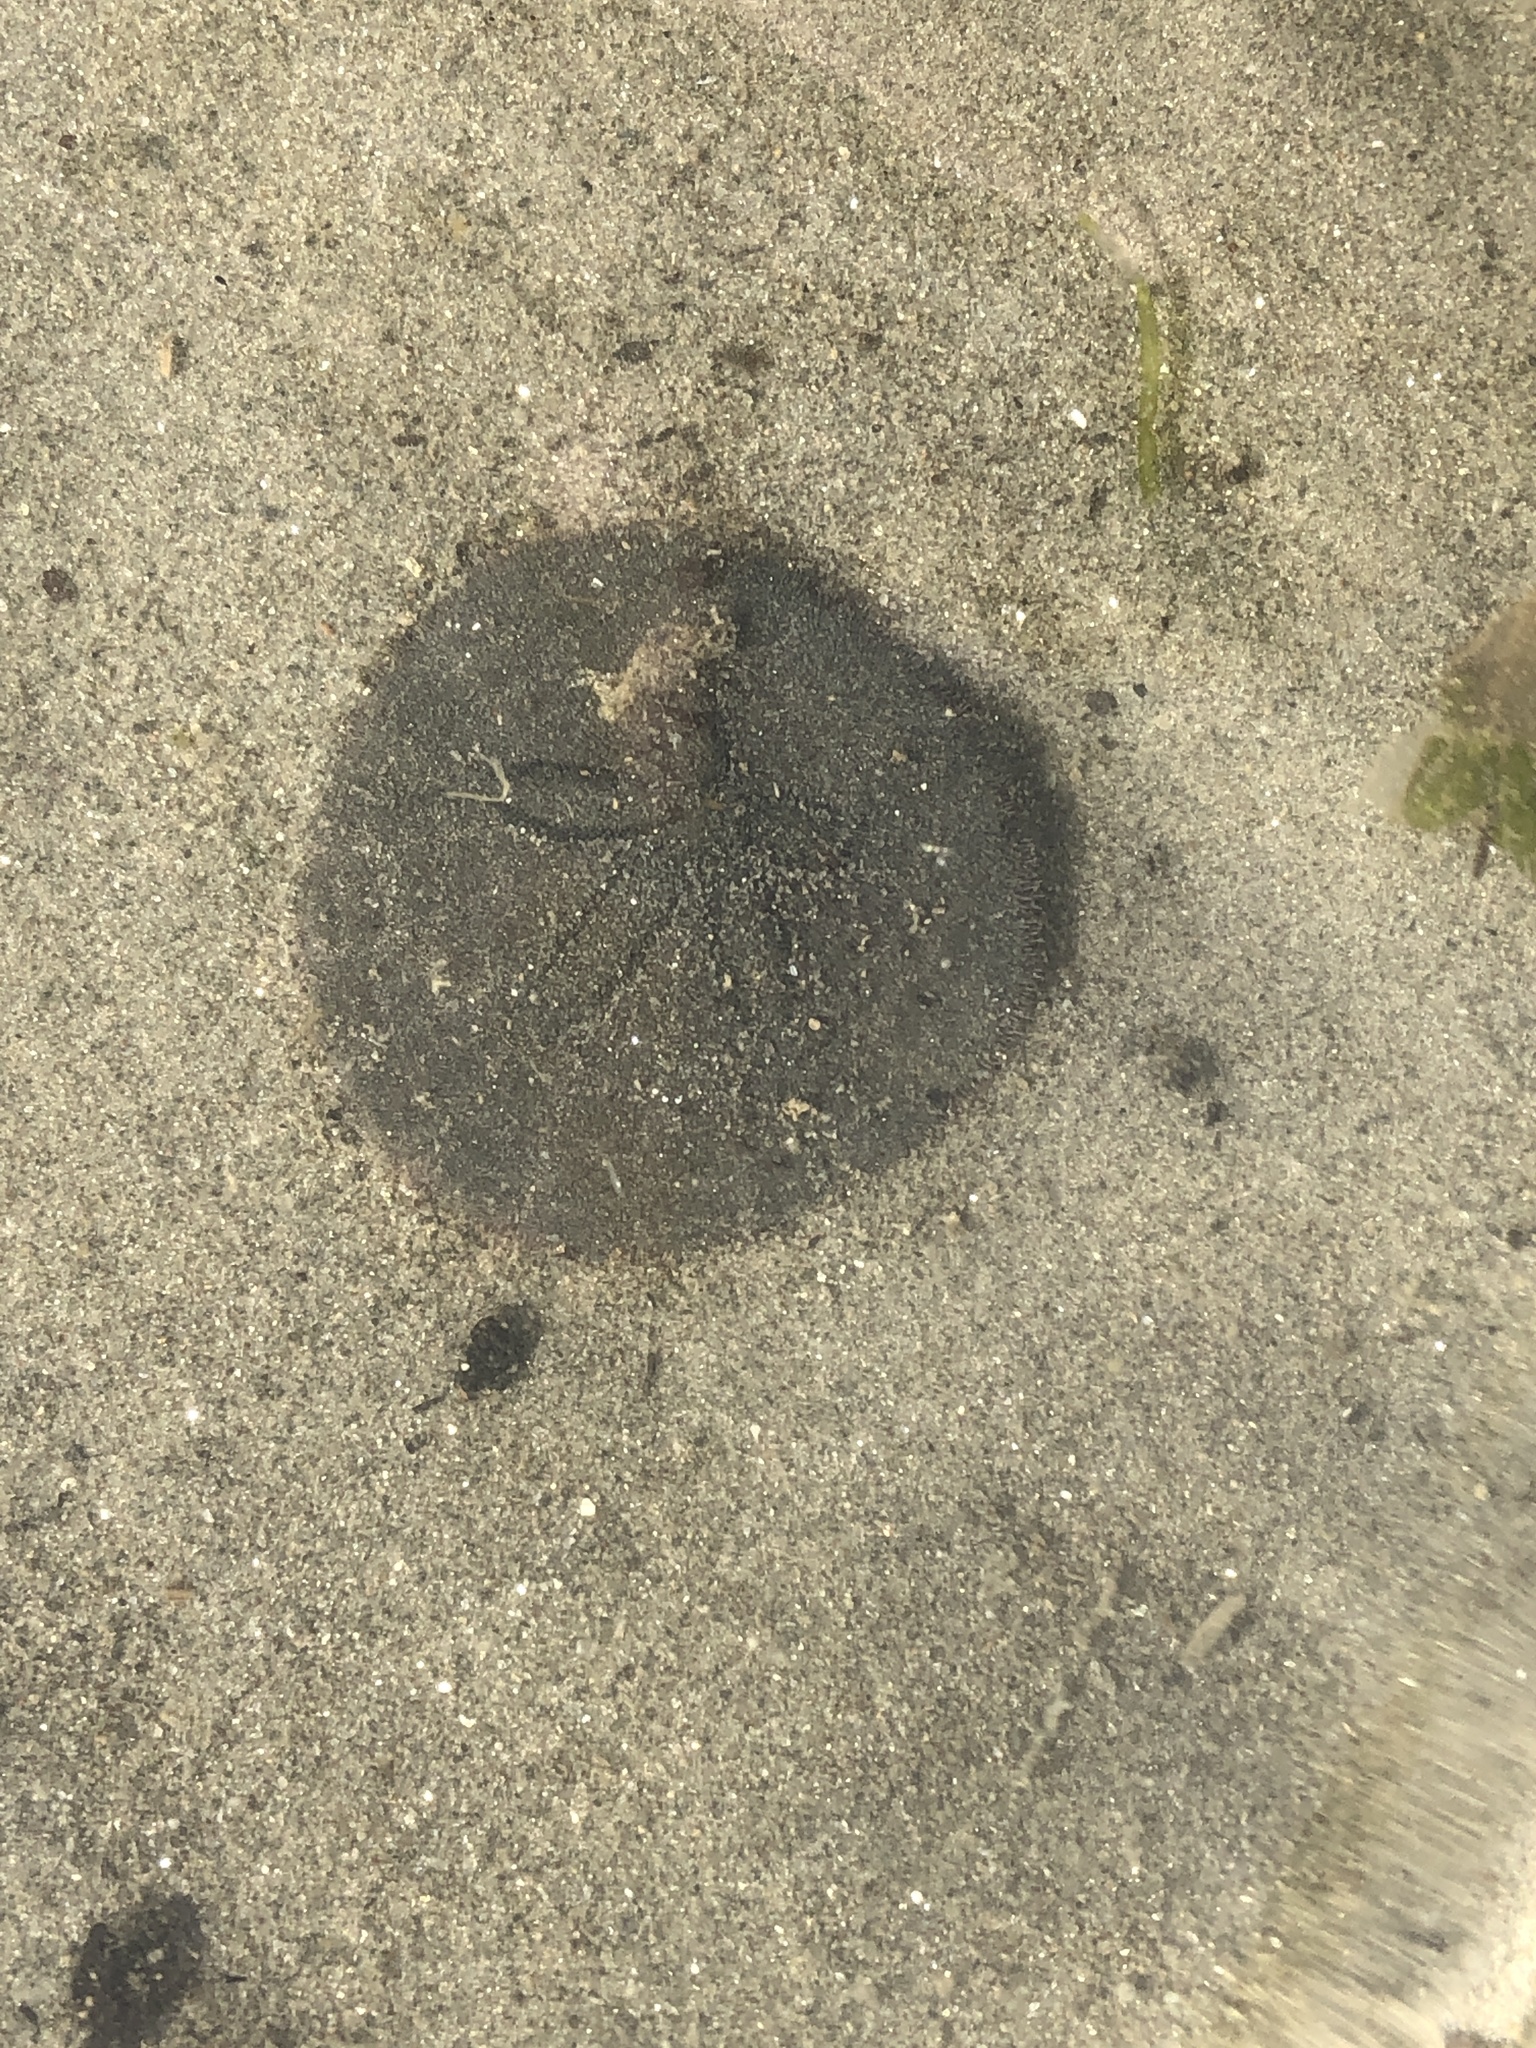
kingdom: Animalia
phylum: Echinodermata
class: Echinoidea
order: Echinolampadacea
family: Dendrasteridae
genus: Dendraster
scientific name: Dendraster excentricus
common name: Eccentric sand dollar sea urchin
